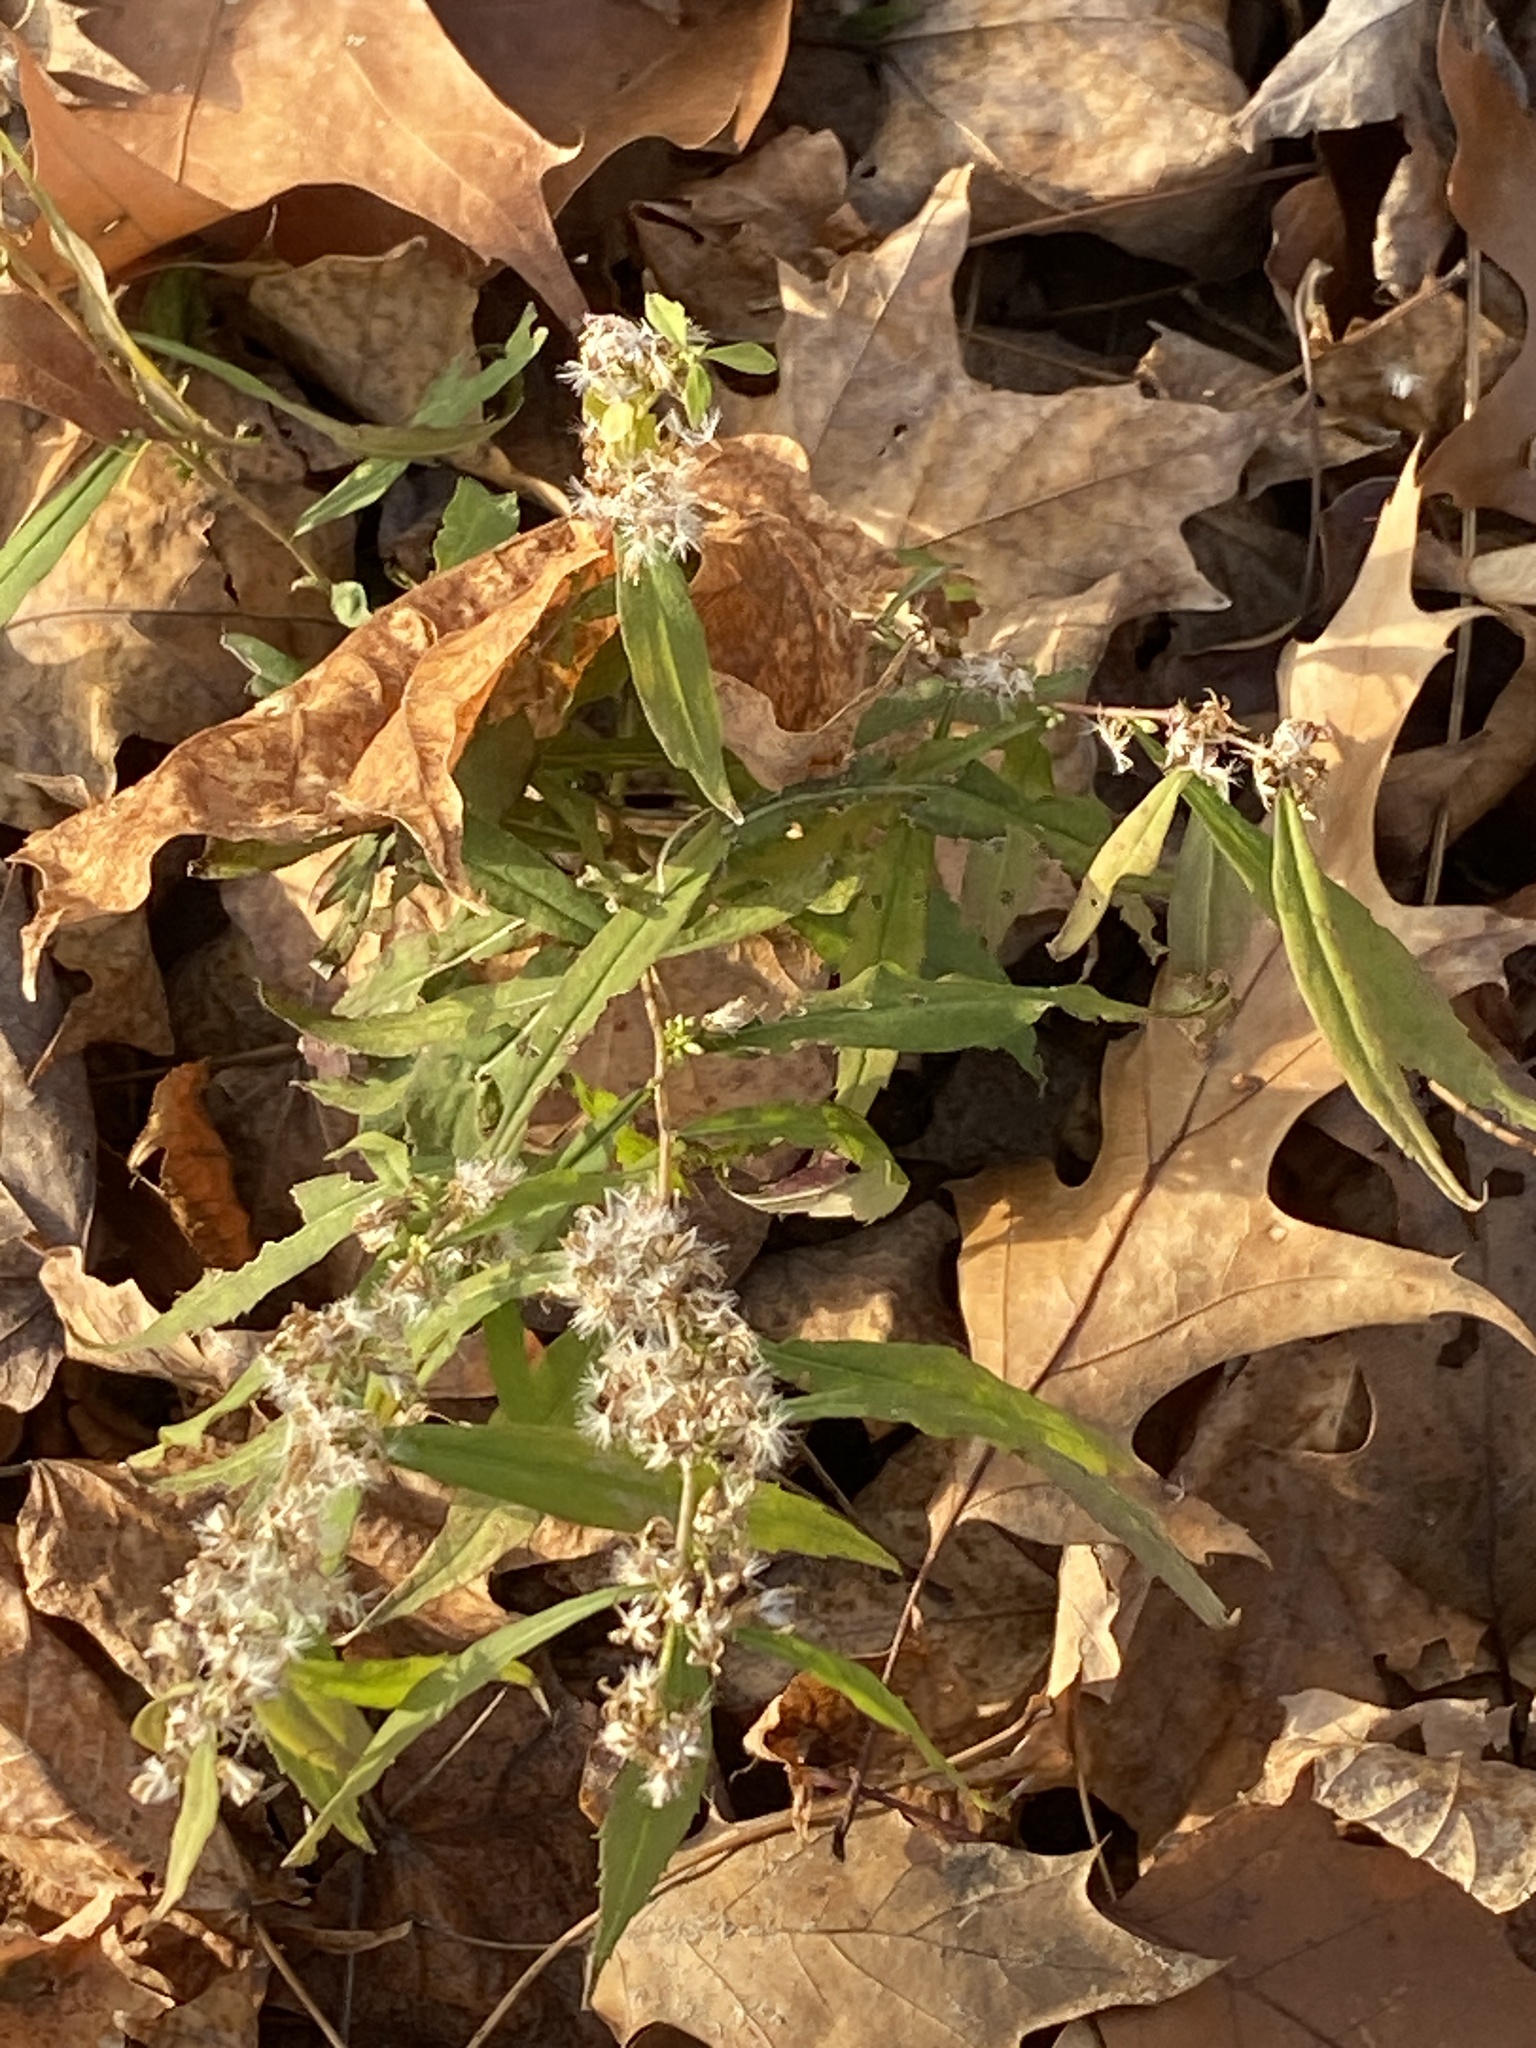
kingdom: Plantae
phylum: Tracheophyta
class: Magnoliopsida
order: Asterales
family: Asteraceae
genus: Solidago
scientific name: Solidago caesia
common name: Woodland goldenrod
